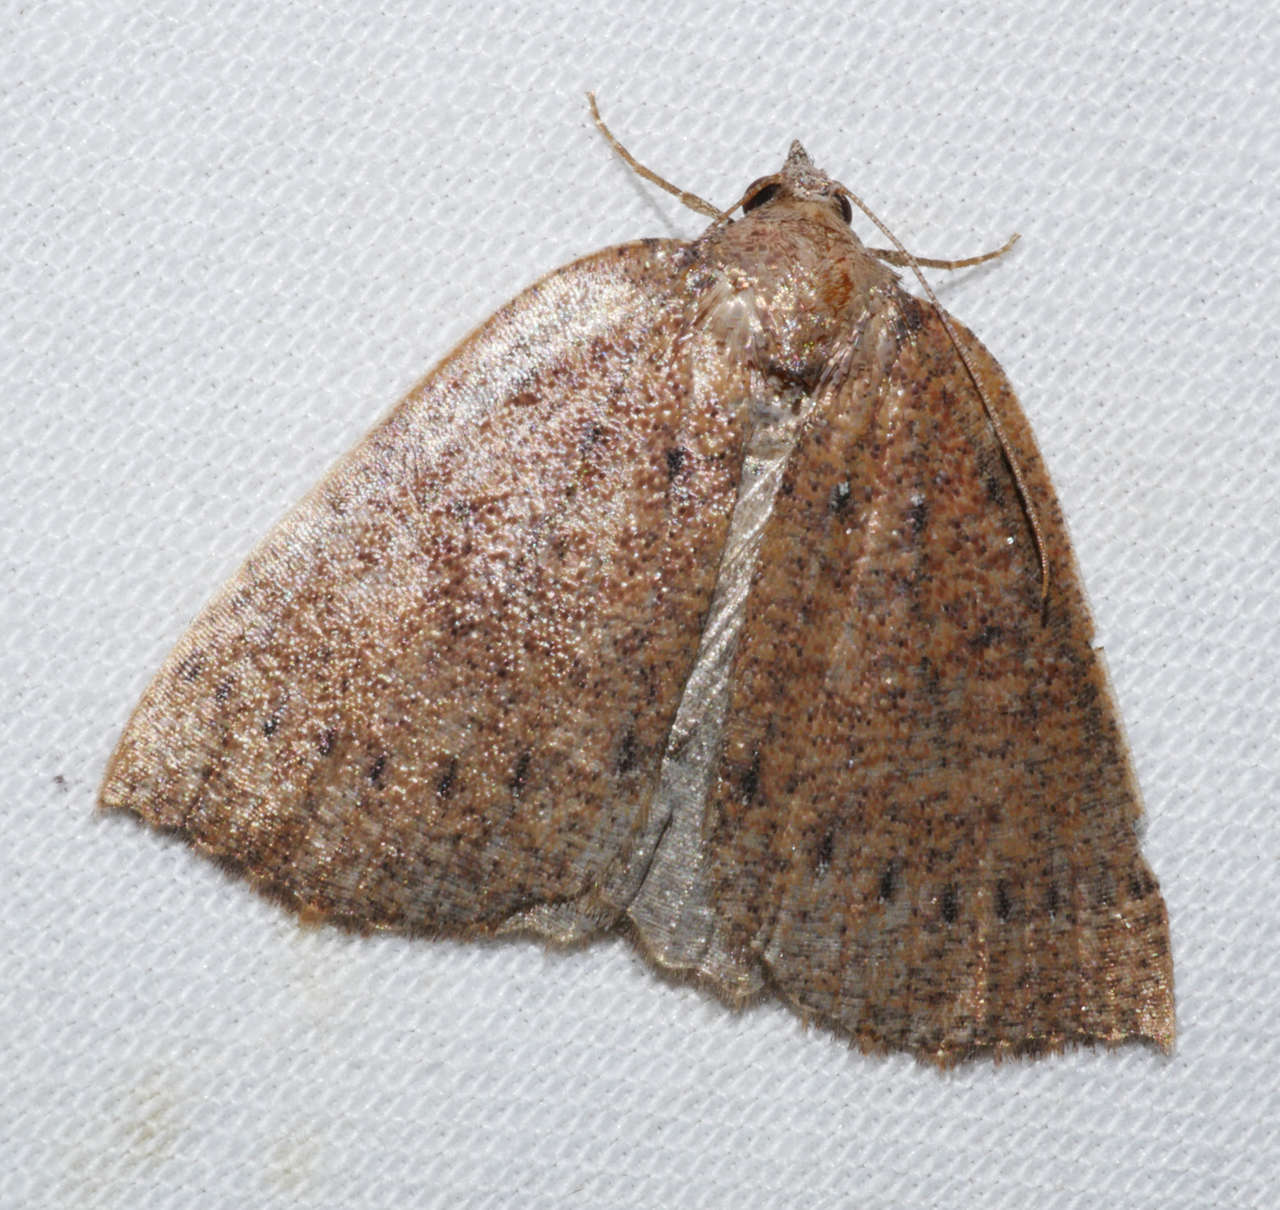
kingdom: Animalia
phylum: Arthropoda
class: Insecta
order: Lepidoptera
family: Geometridae
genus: Authaemon
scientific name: Authaemon stenonipha
